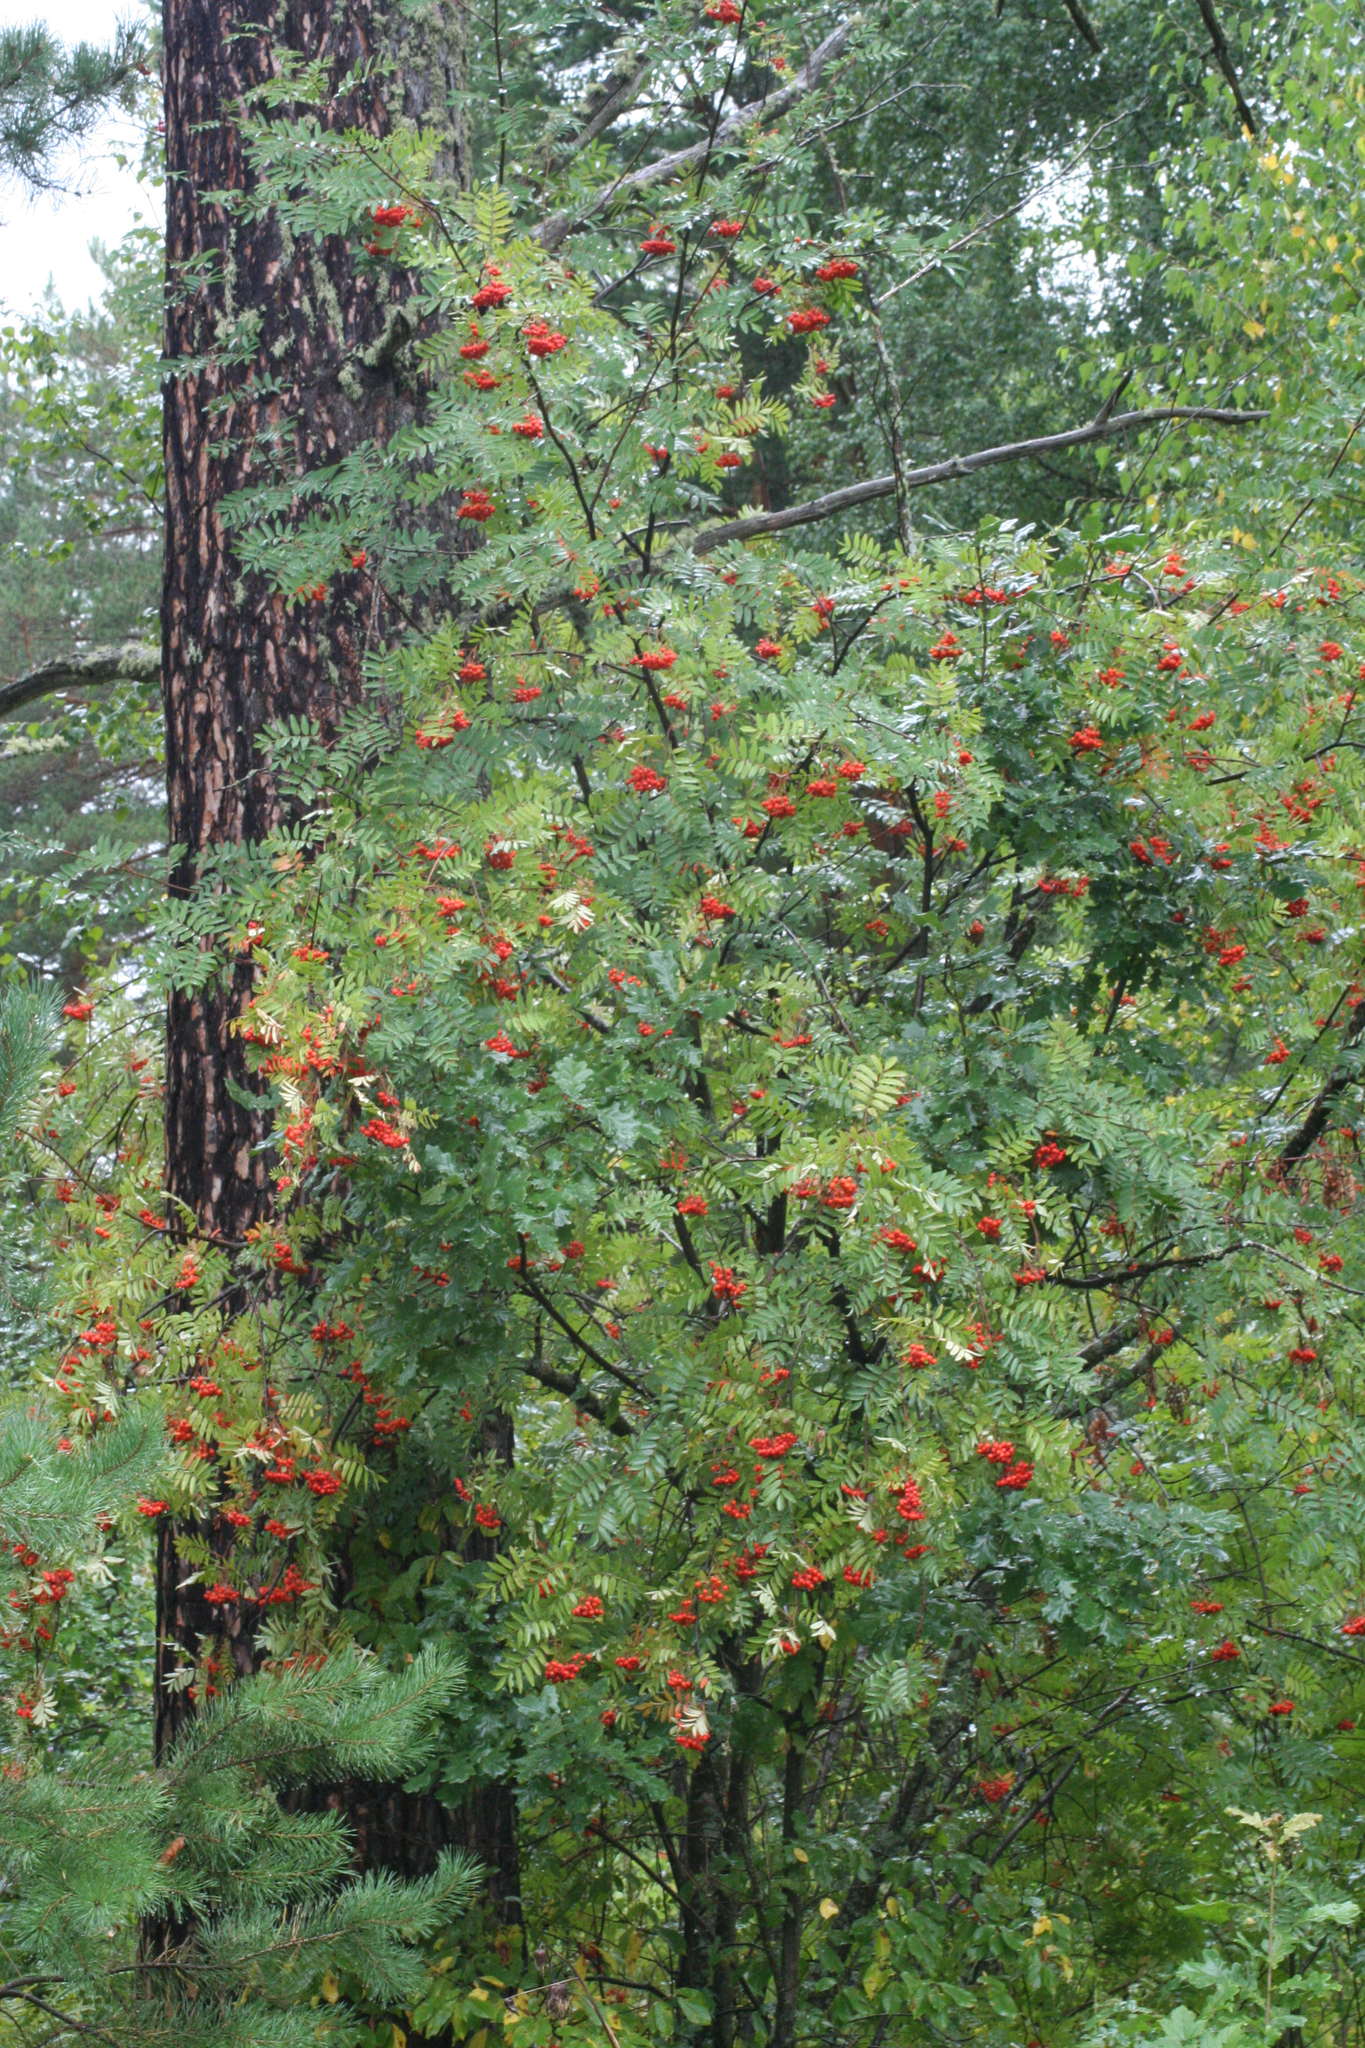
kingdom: Plantae
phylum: Tracheophyta
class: Magnoliopsida
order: Rosales
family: Rosaceae
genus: Sorbus
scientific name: Sorbus aucuparia
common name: Rowan
